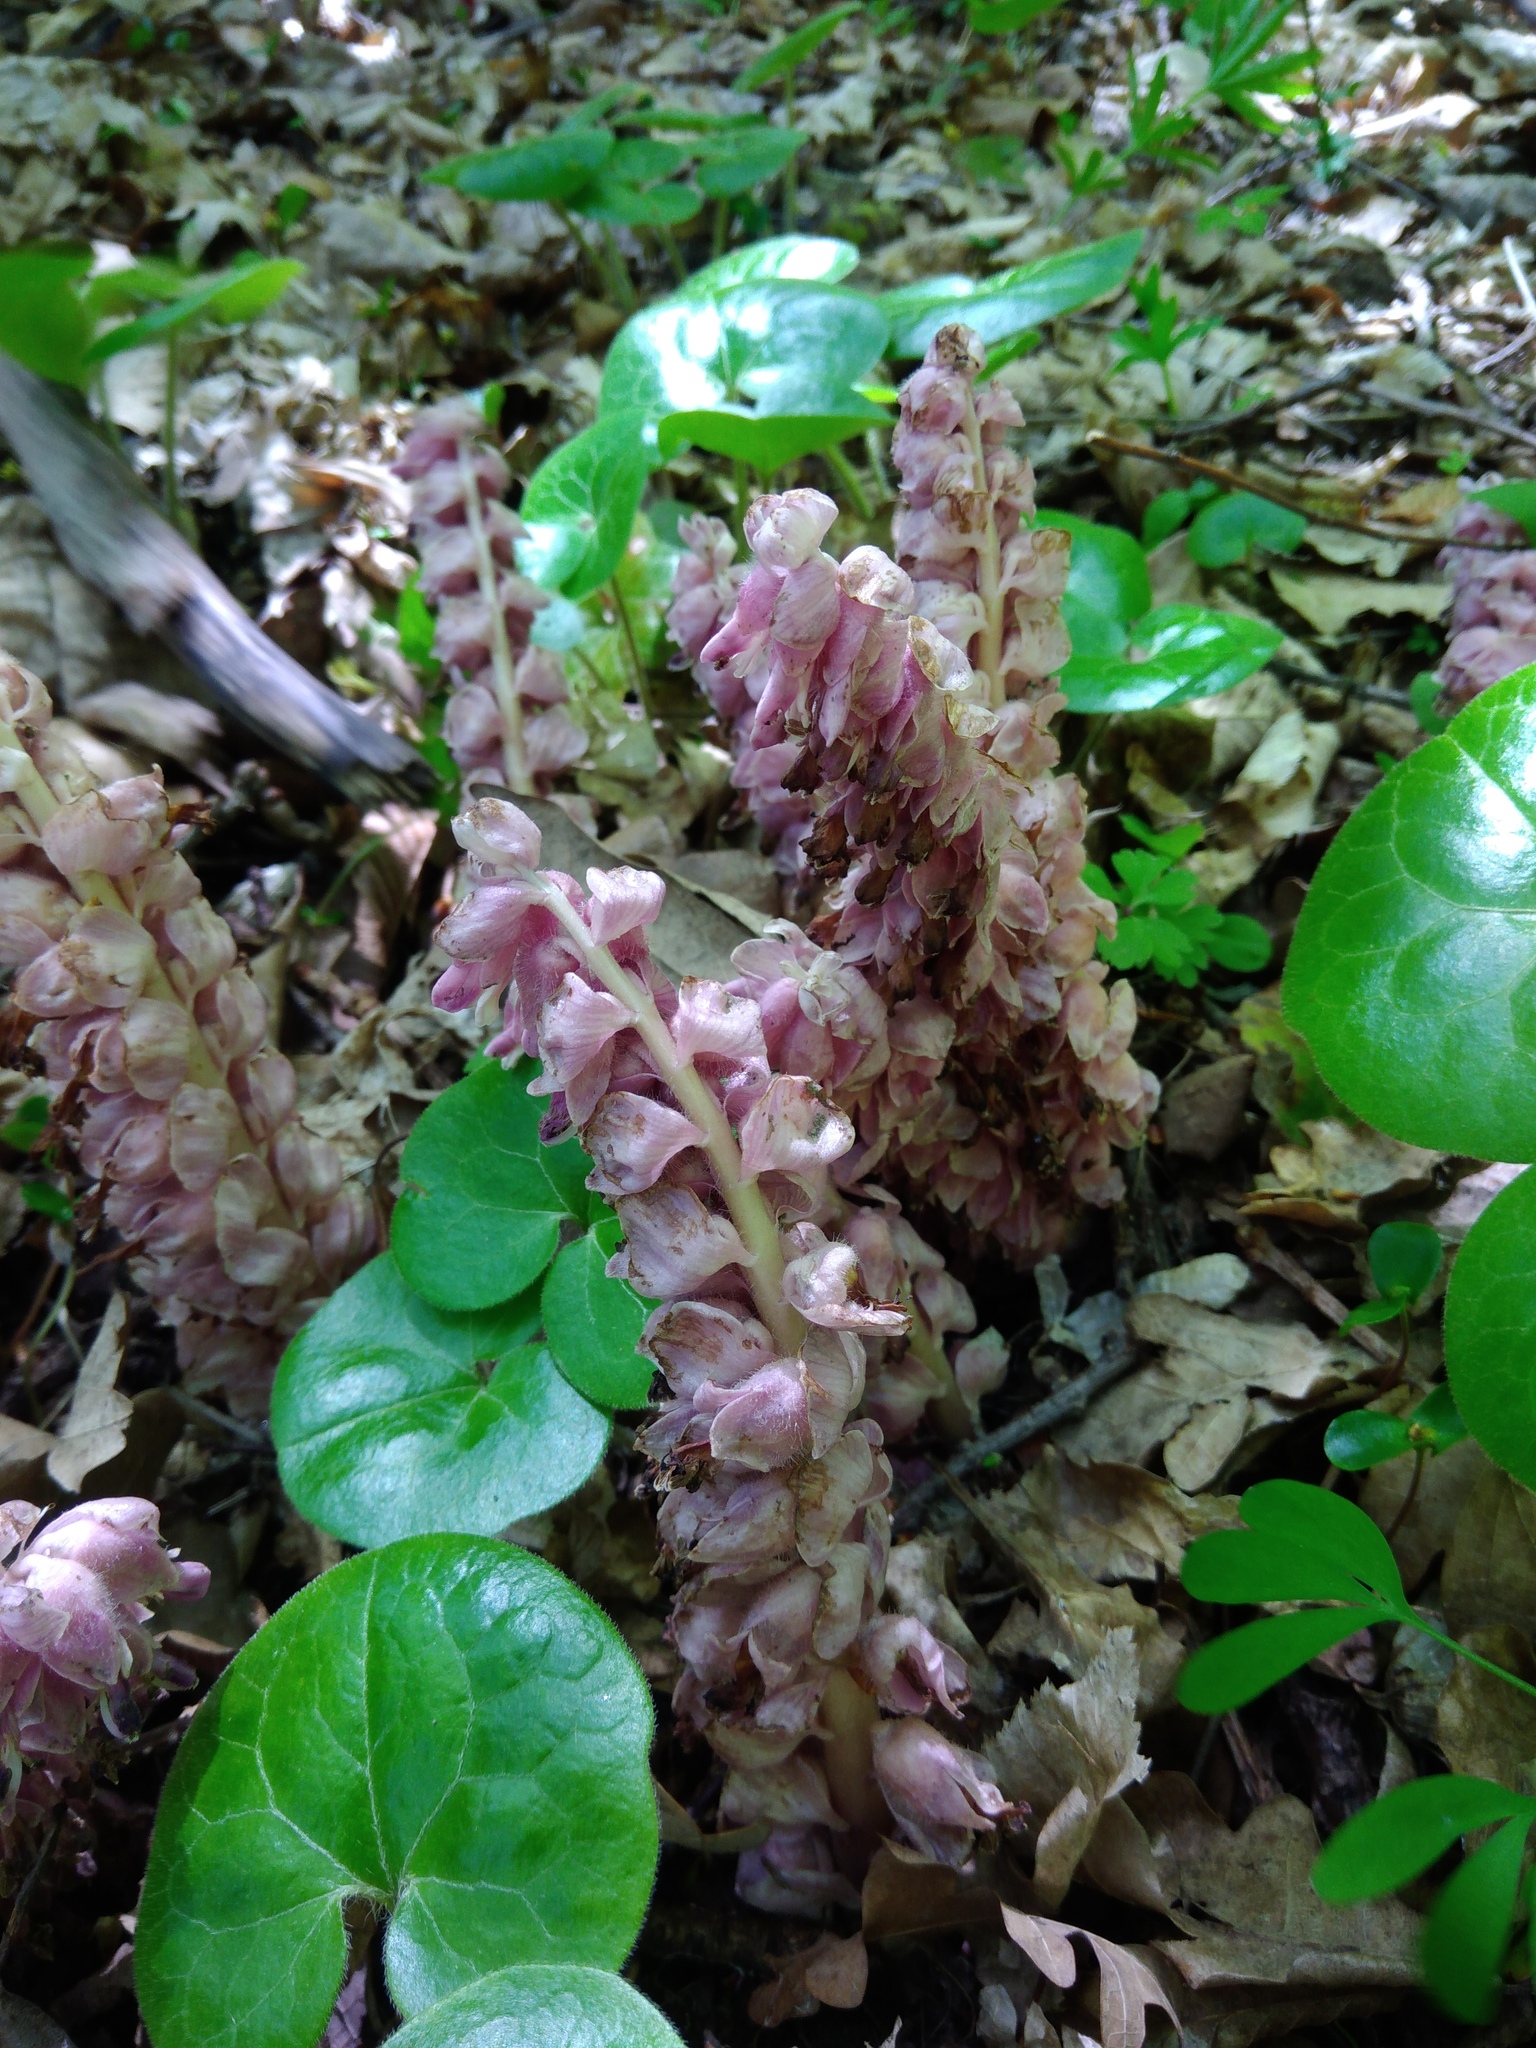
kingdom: Plantae
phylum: Tracheophyta
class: Magnoliopsida
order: Lamiales
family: Orobanchaceae
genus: Lathraea
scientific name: Lathraea squamaria
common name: Toothwort
